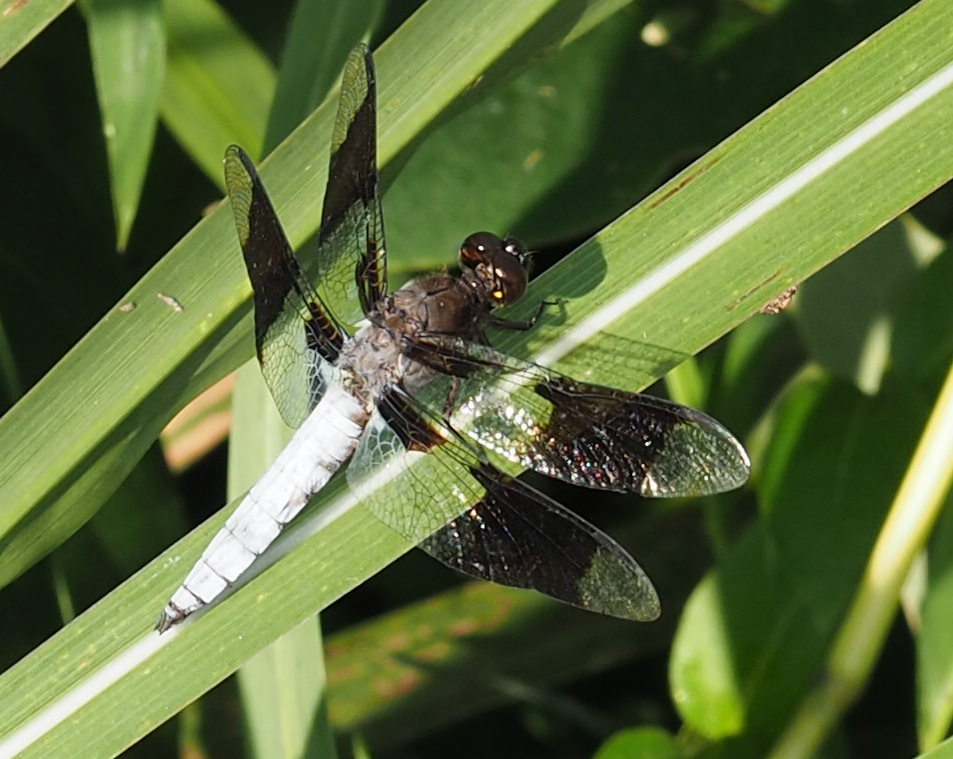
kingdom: Animalia
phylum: Arthropoda
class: Insecta
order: Odonata
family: Libellulidae
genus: Plathemis
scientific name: Plathemis lydia
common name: Common whitetail
